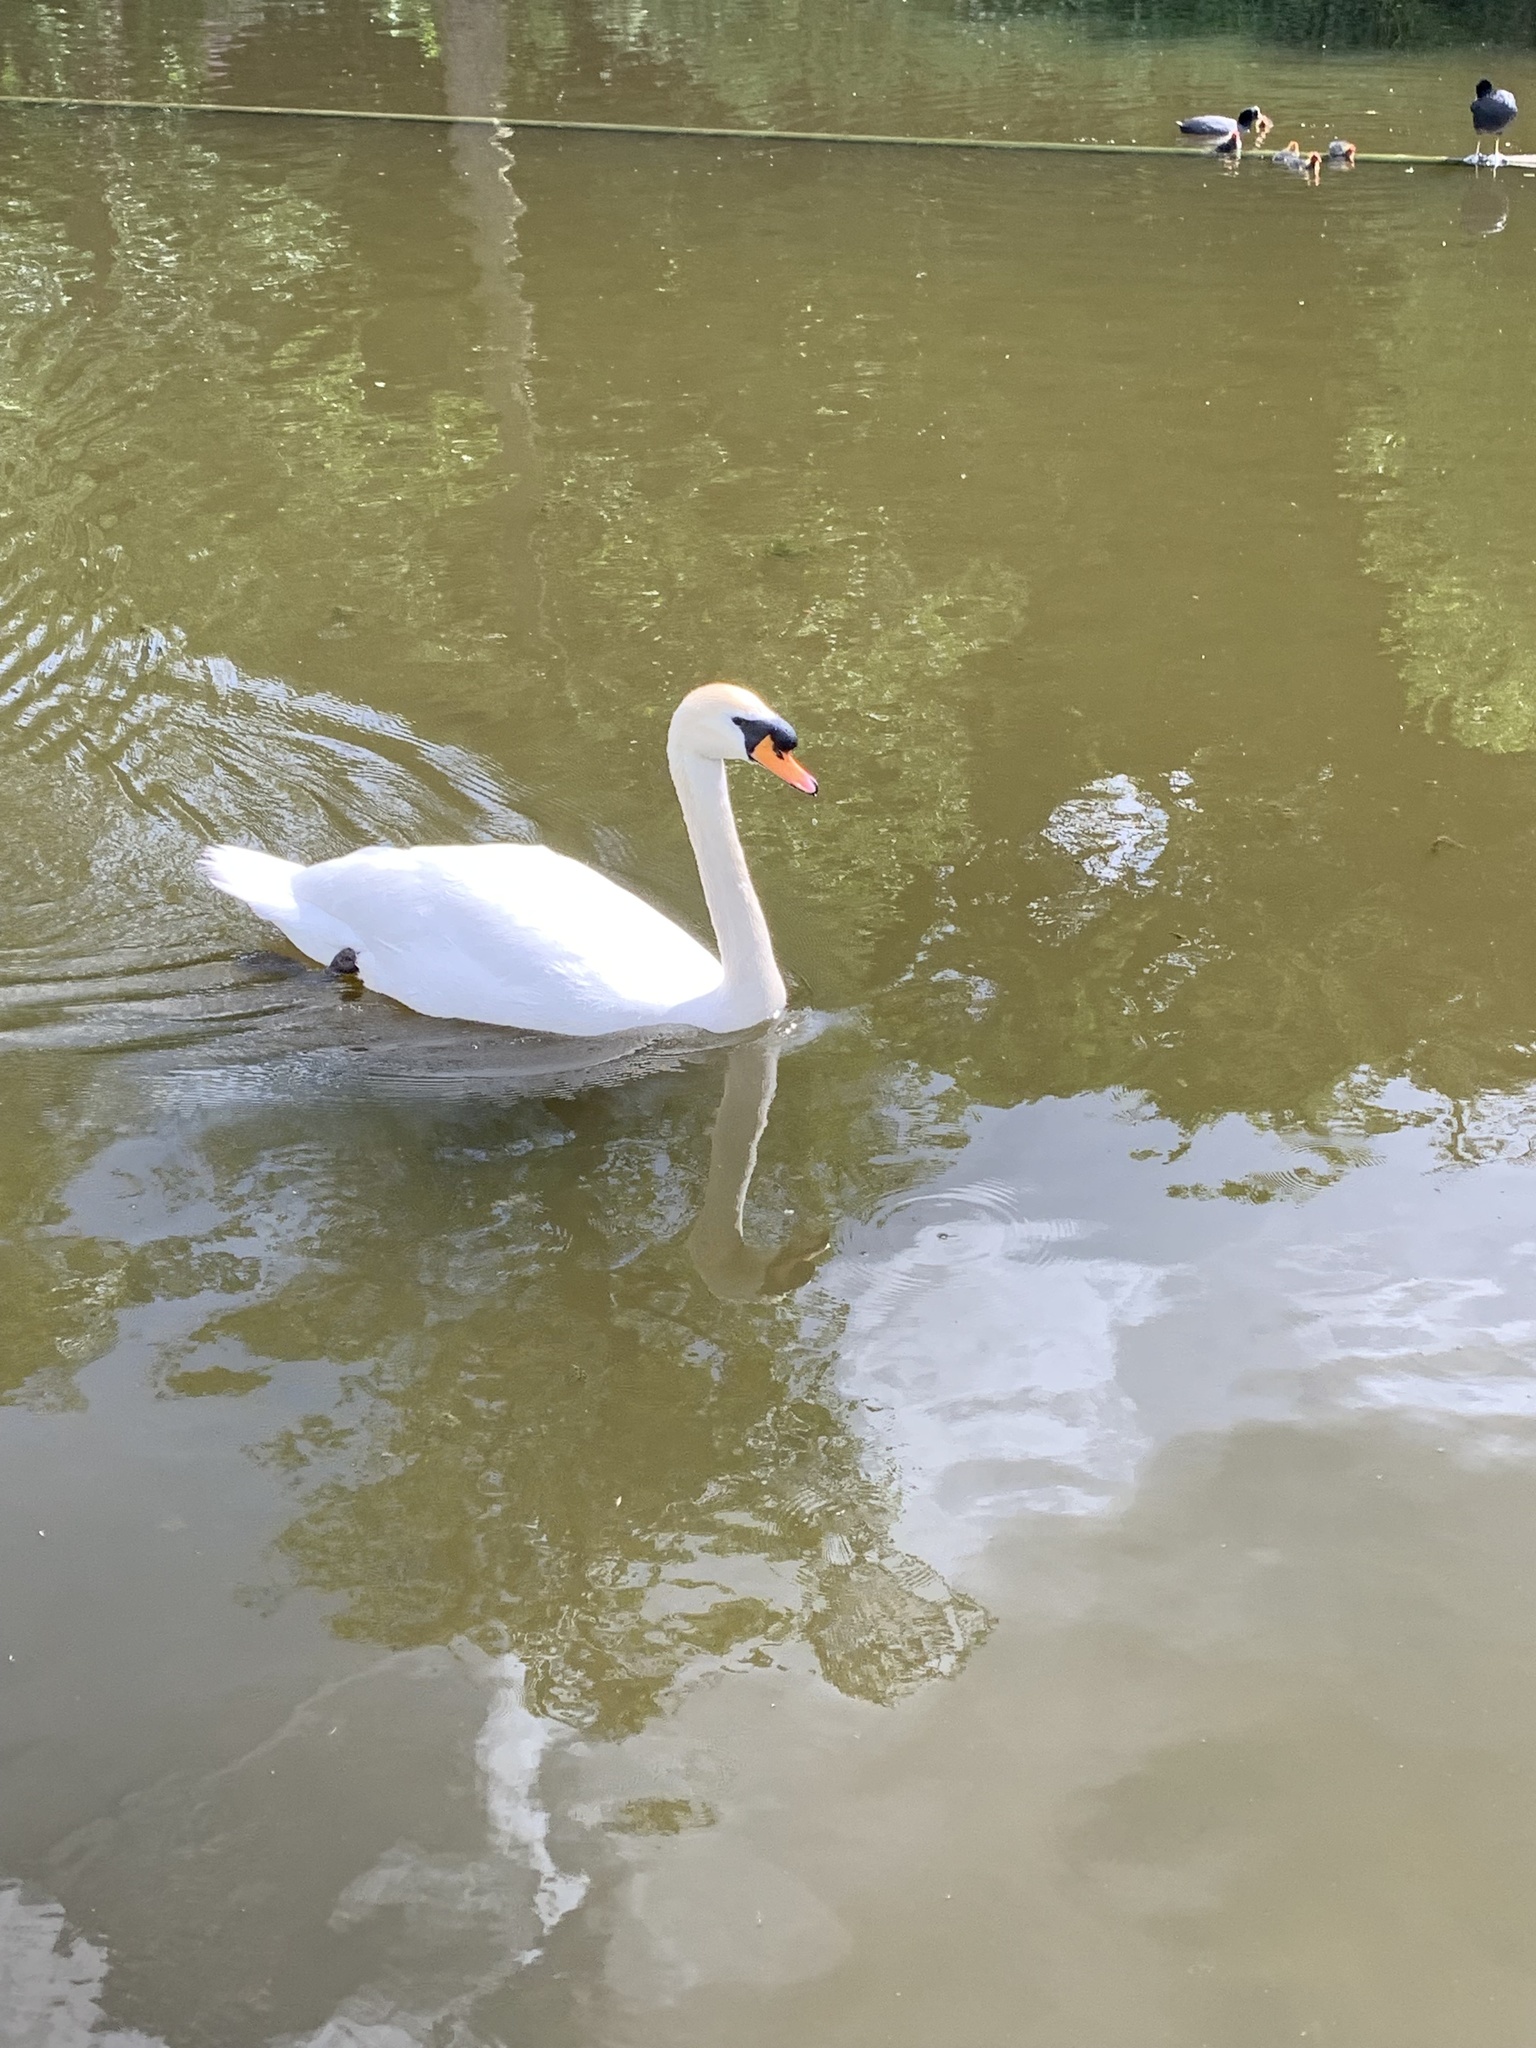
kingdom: Animalia
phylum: Chordata
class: Aves
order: Anseriformes
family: Anatidae
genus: Cygnus
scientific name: Cygnus olor
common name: Mute swan
